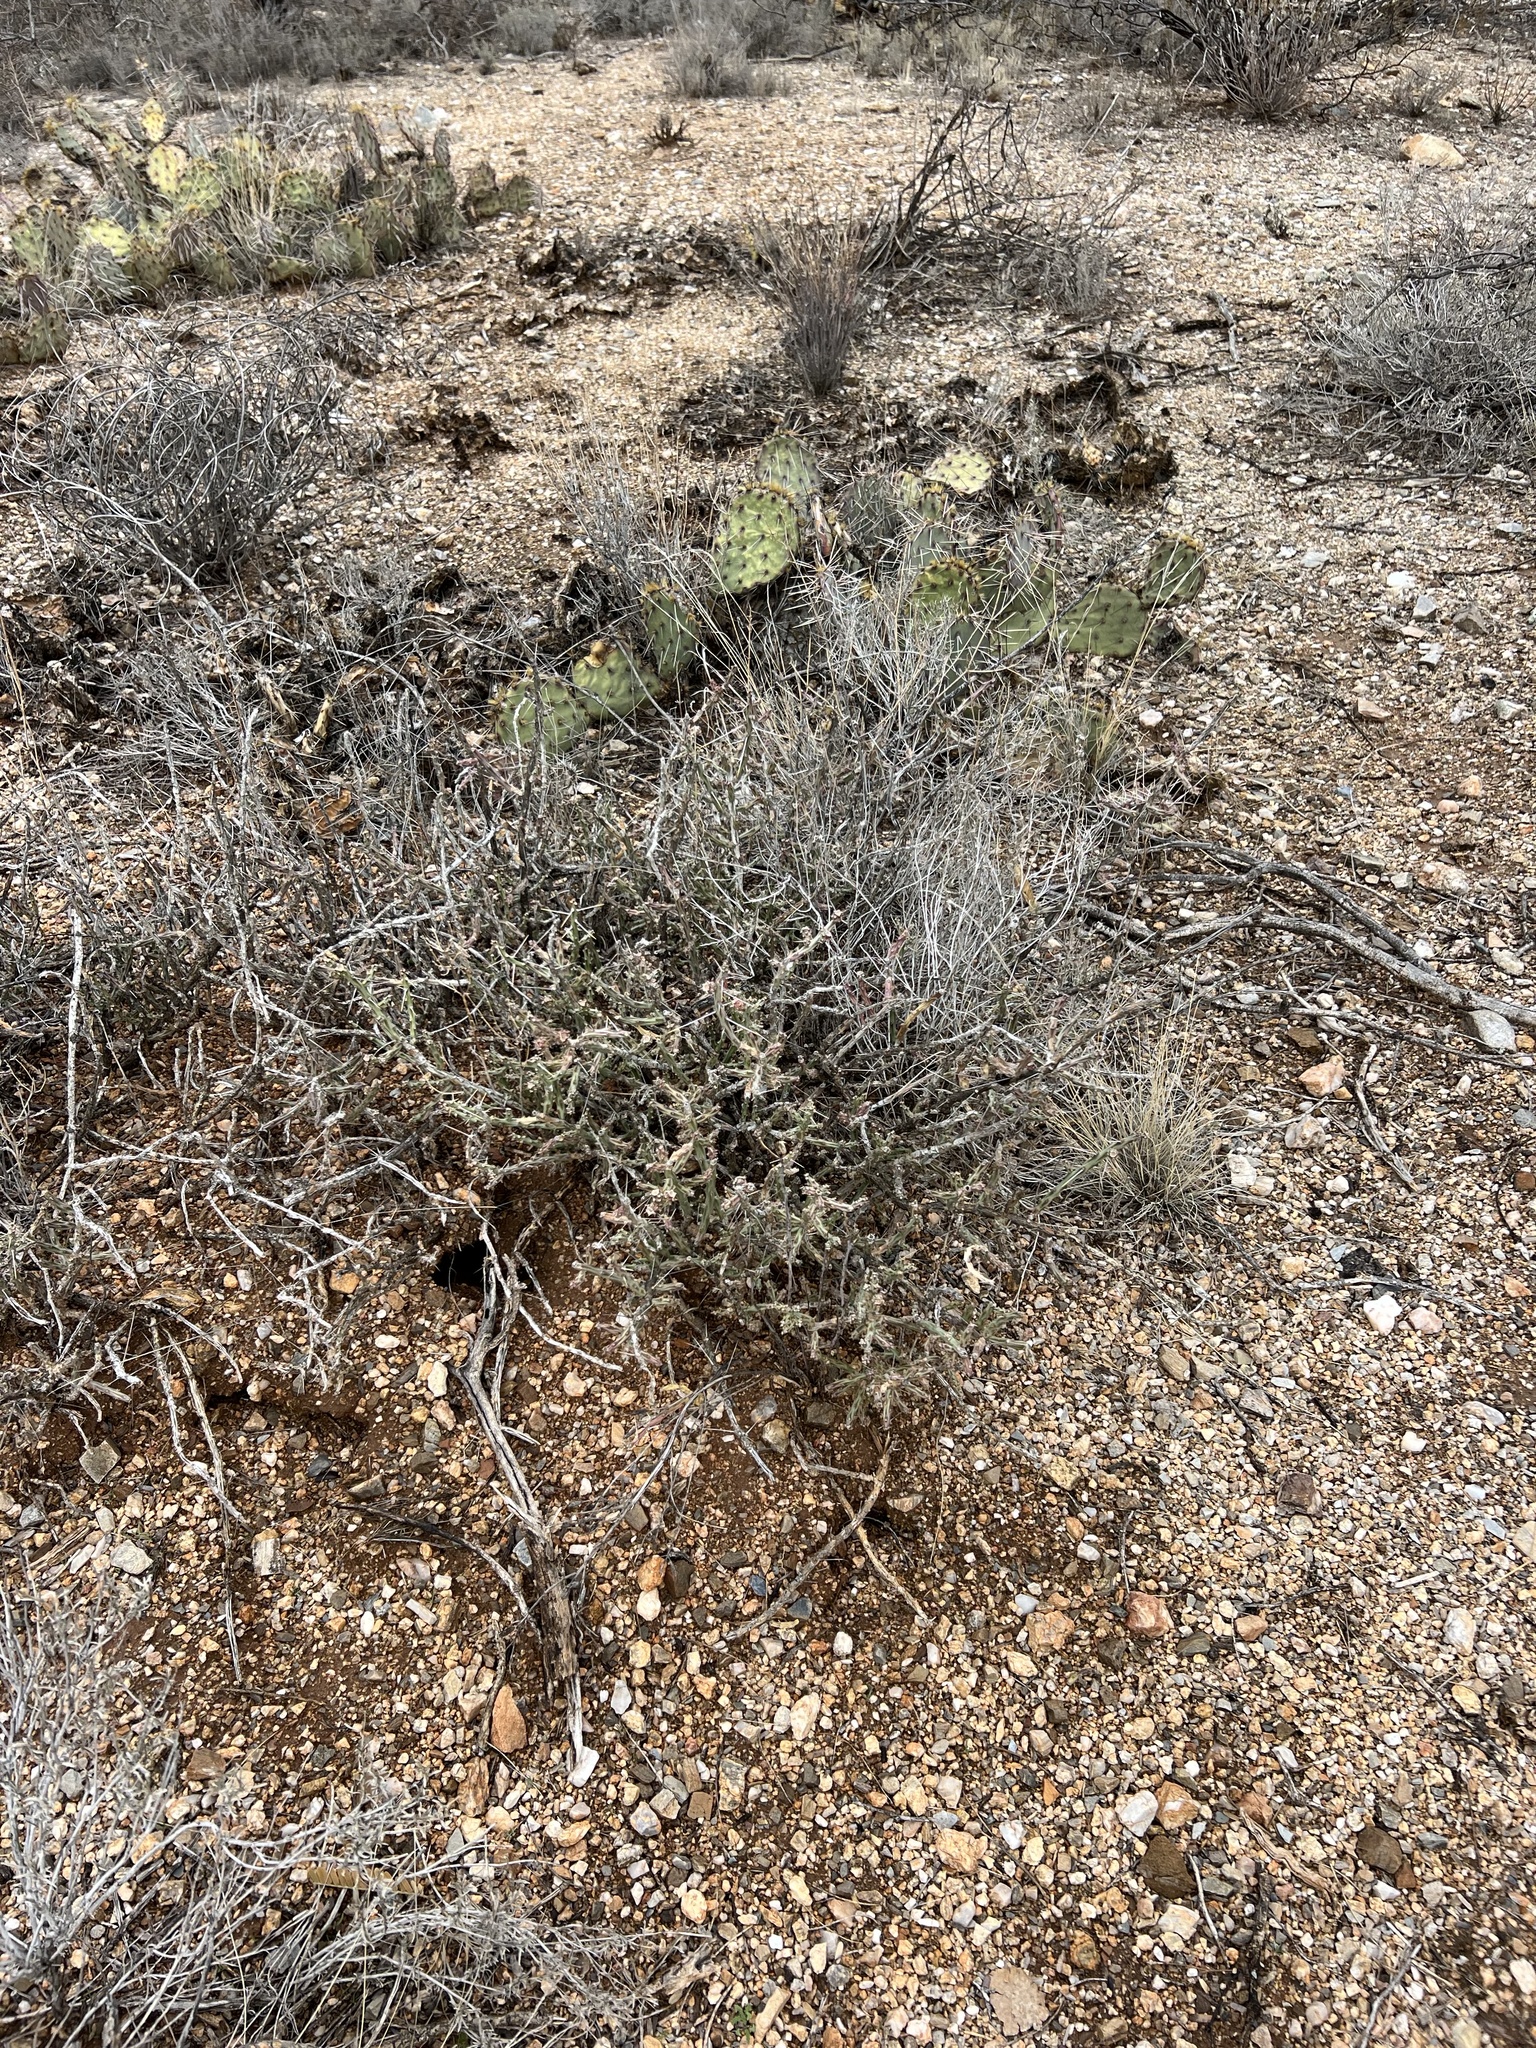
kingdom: Plantae
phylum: Tracheophyta
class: Magnoliopsida
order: Caryophyllales
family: Cactaceae
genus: Cylindropuntia
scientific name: Cylindropuntia leptocaulis
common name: Christmas cactus
